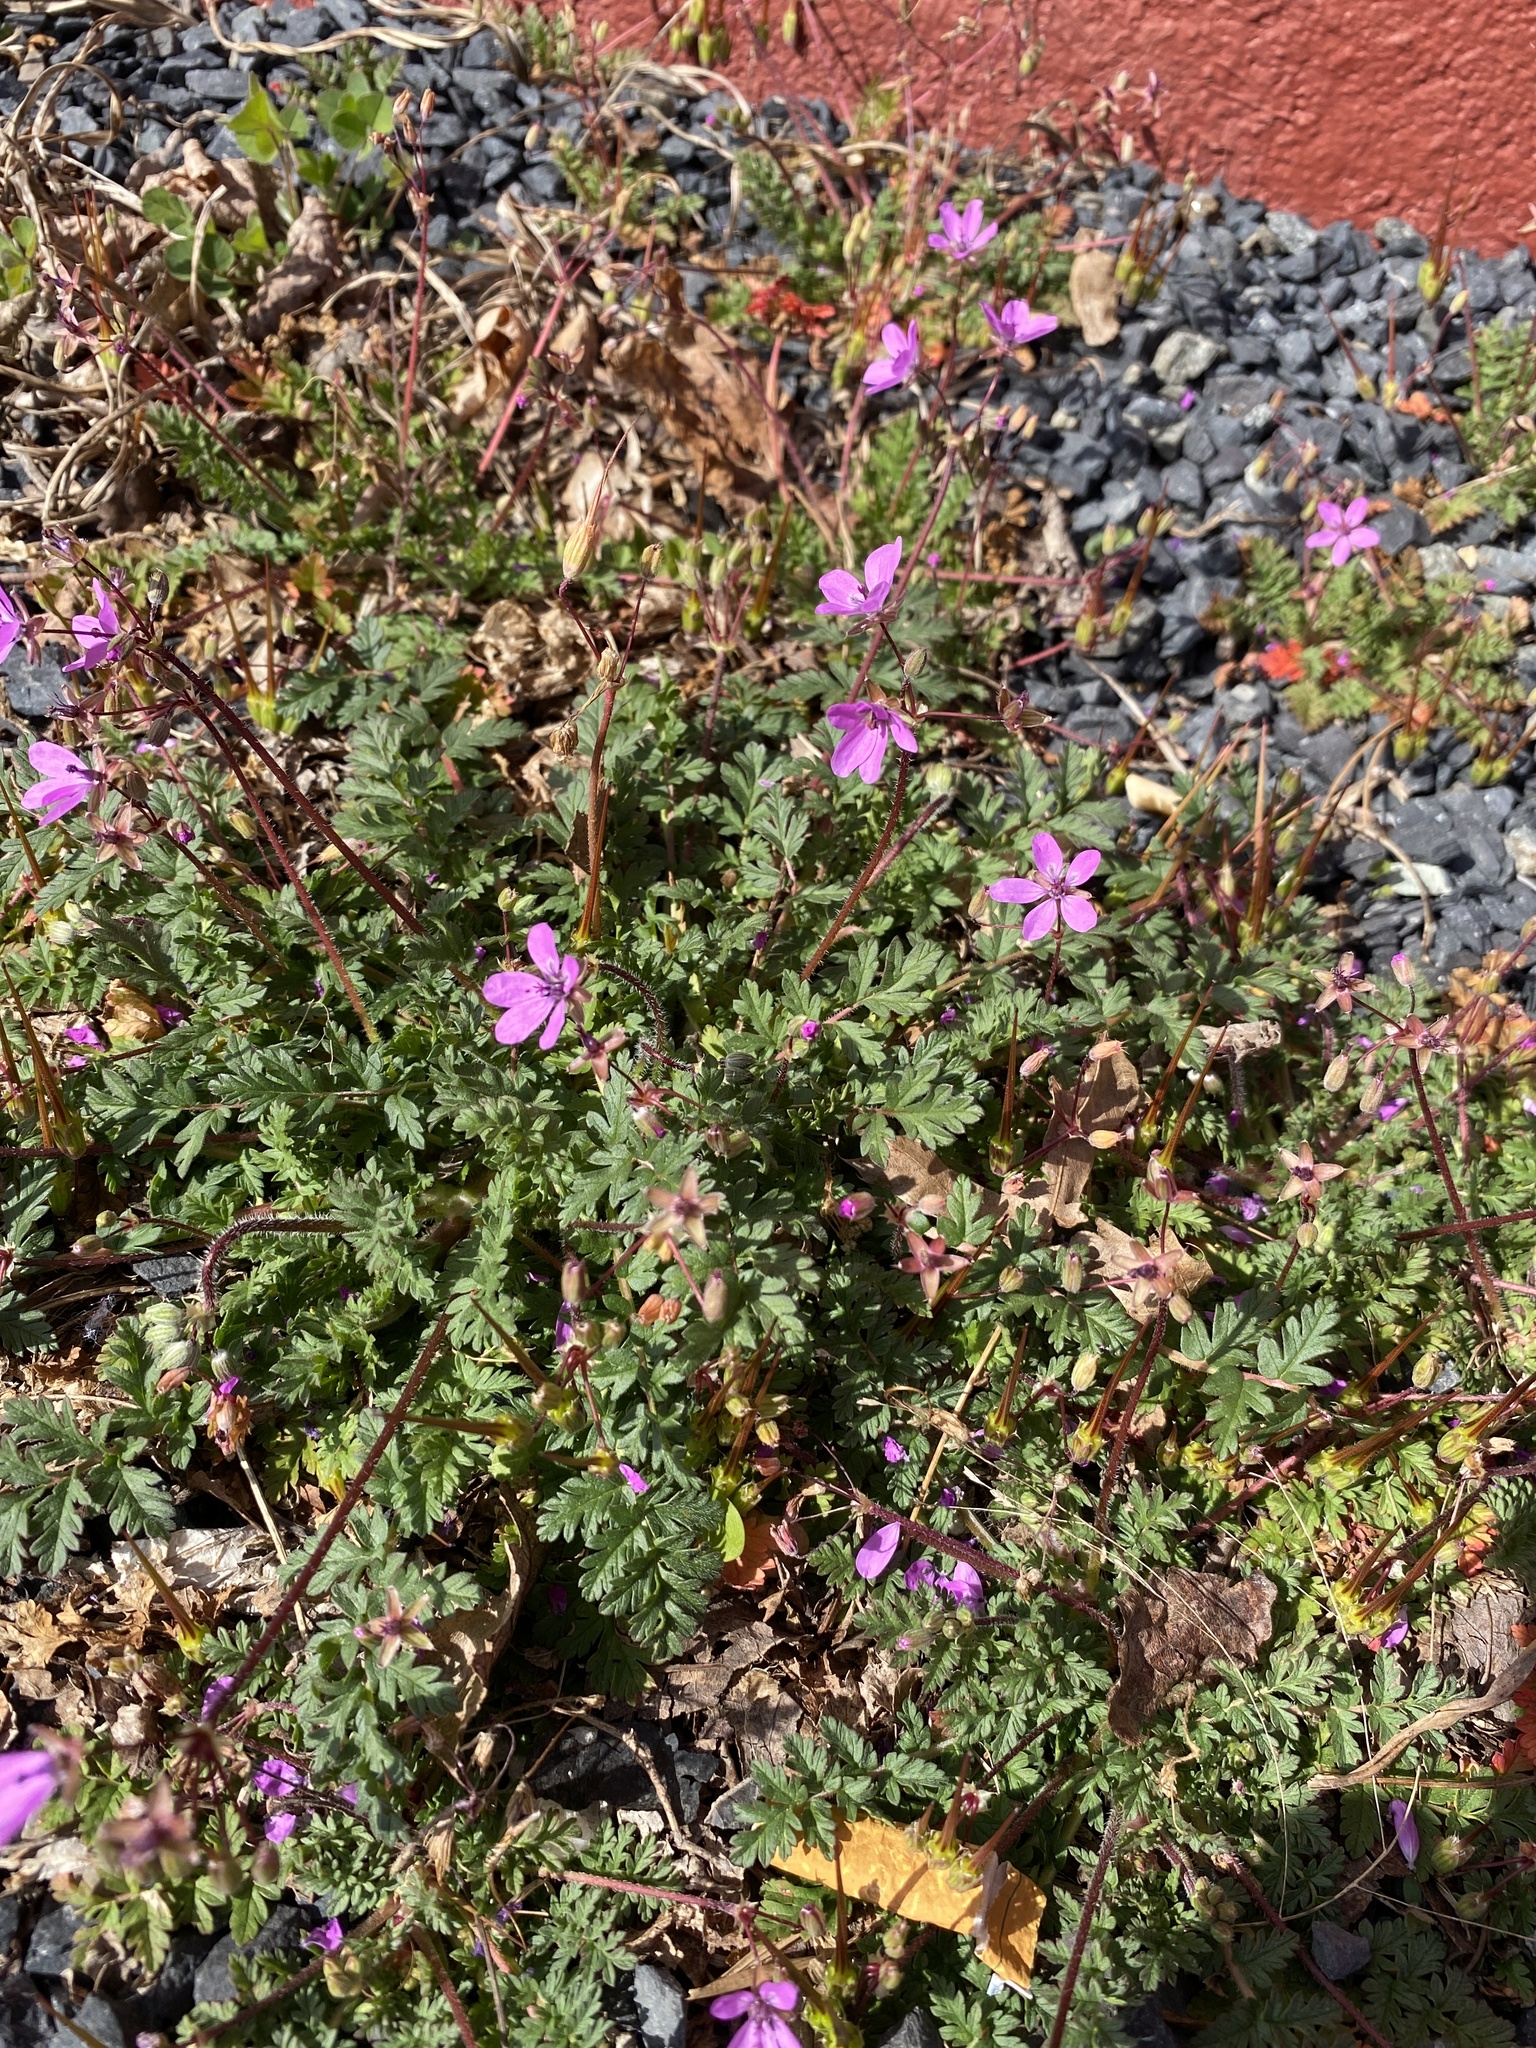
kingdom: Plantae
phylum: Tracheophyta
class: Magnoliopsida
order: Geraniales
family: Geraniaceae
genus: Erodium
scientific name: Erodium cicutarium
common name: Common stork's-bill
